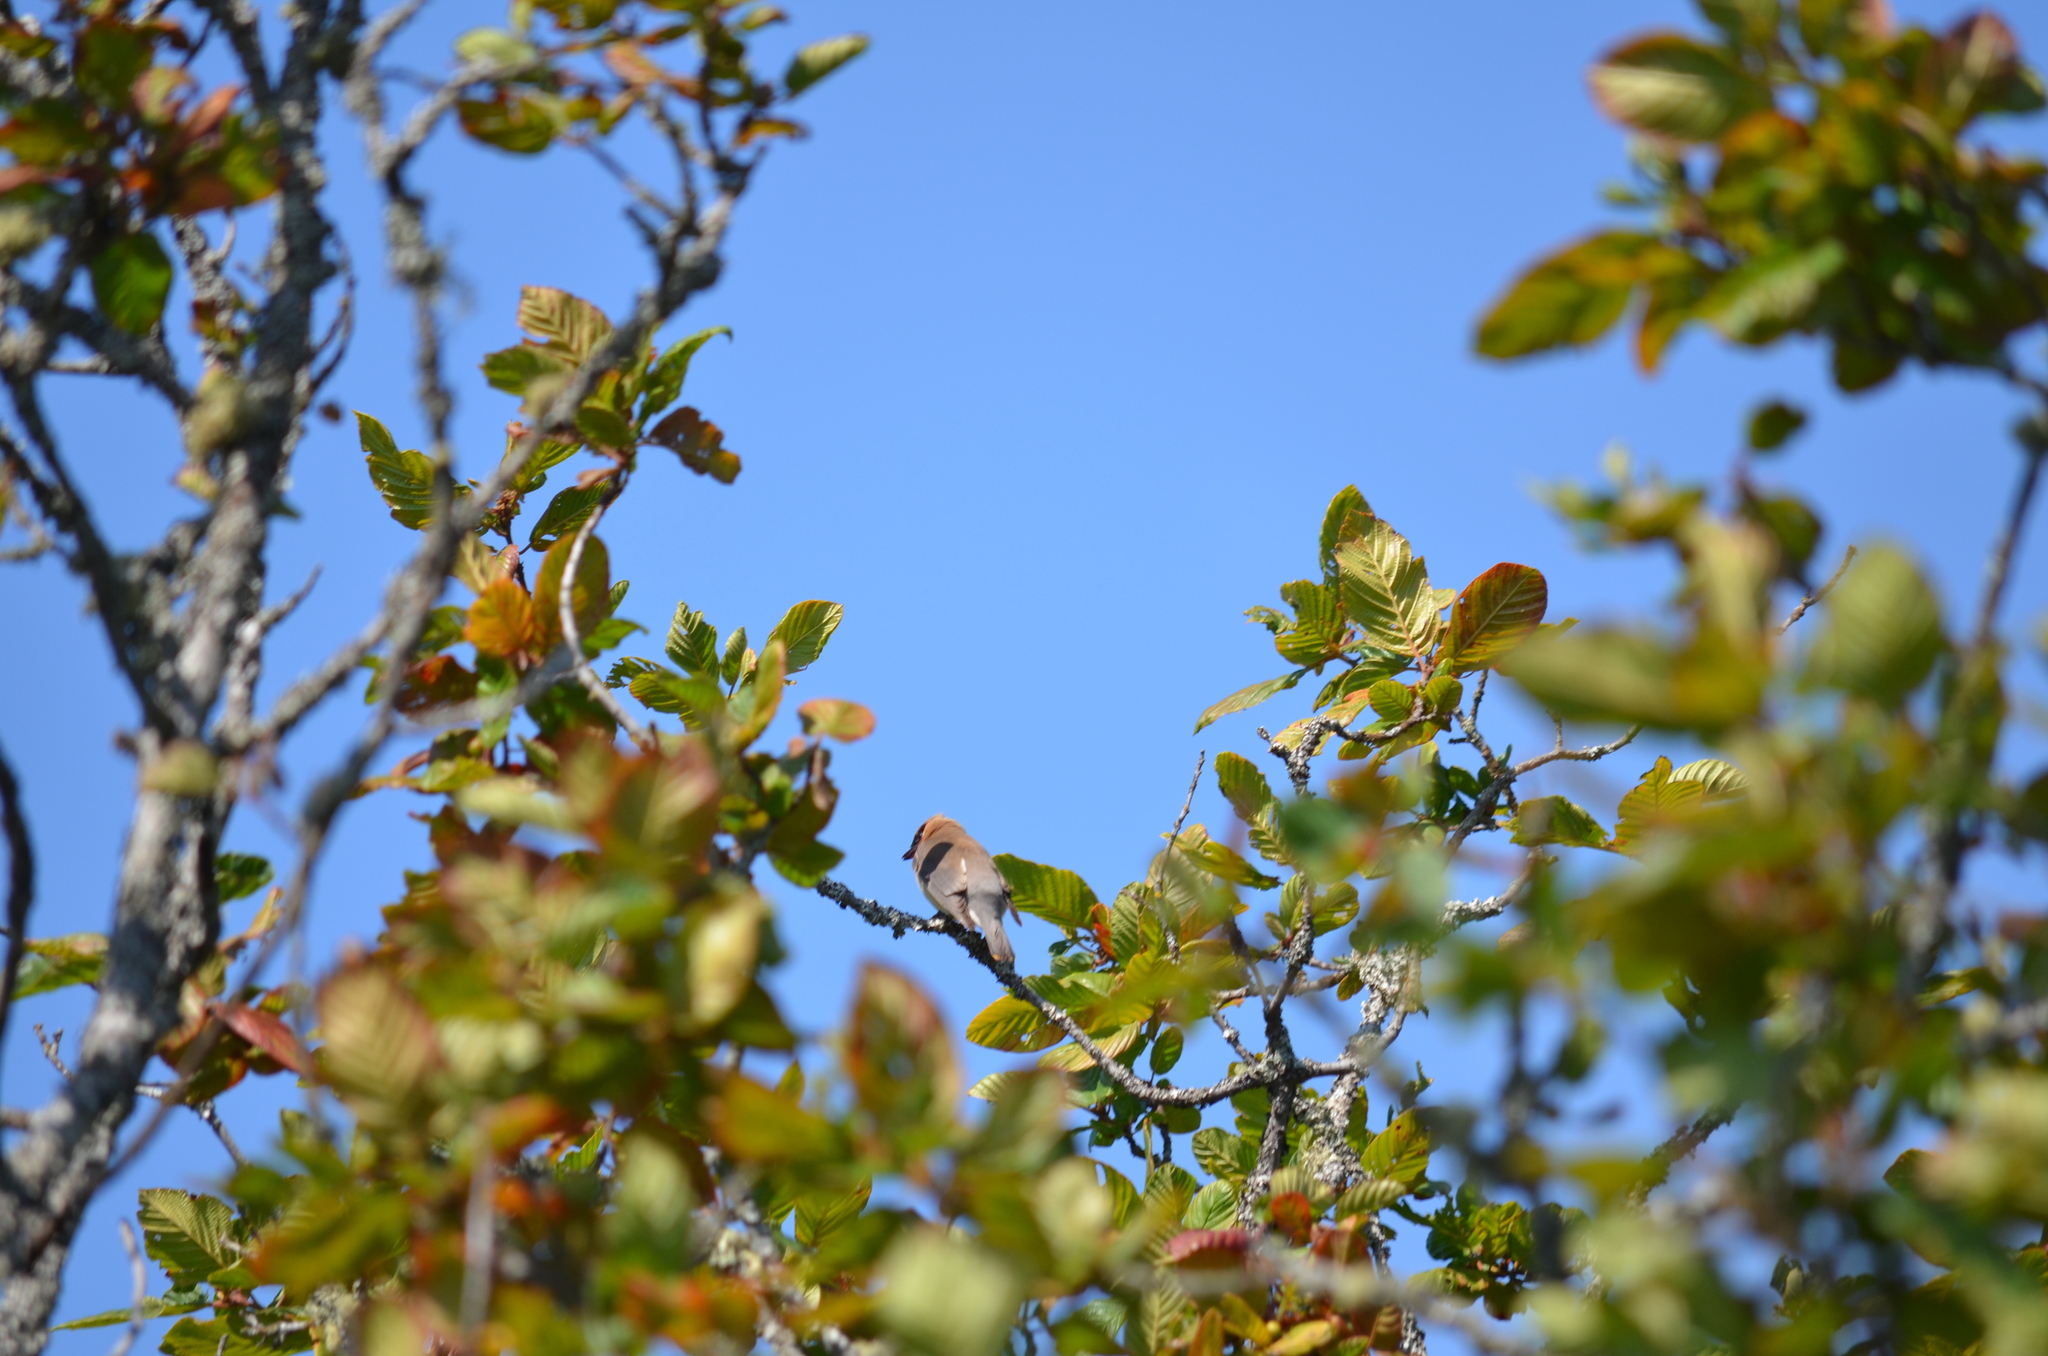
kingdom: Animalia
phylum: Chordata
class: Aves
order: Passeriformes
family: Bombycillidae
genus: Bombycilla
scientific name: Bombycilla cedrorum
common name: Cedar waxwing
